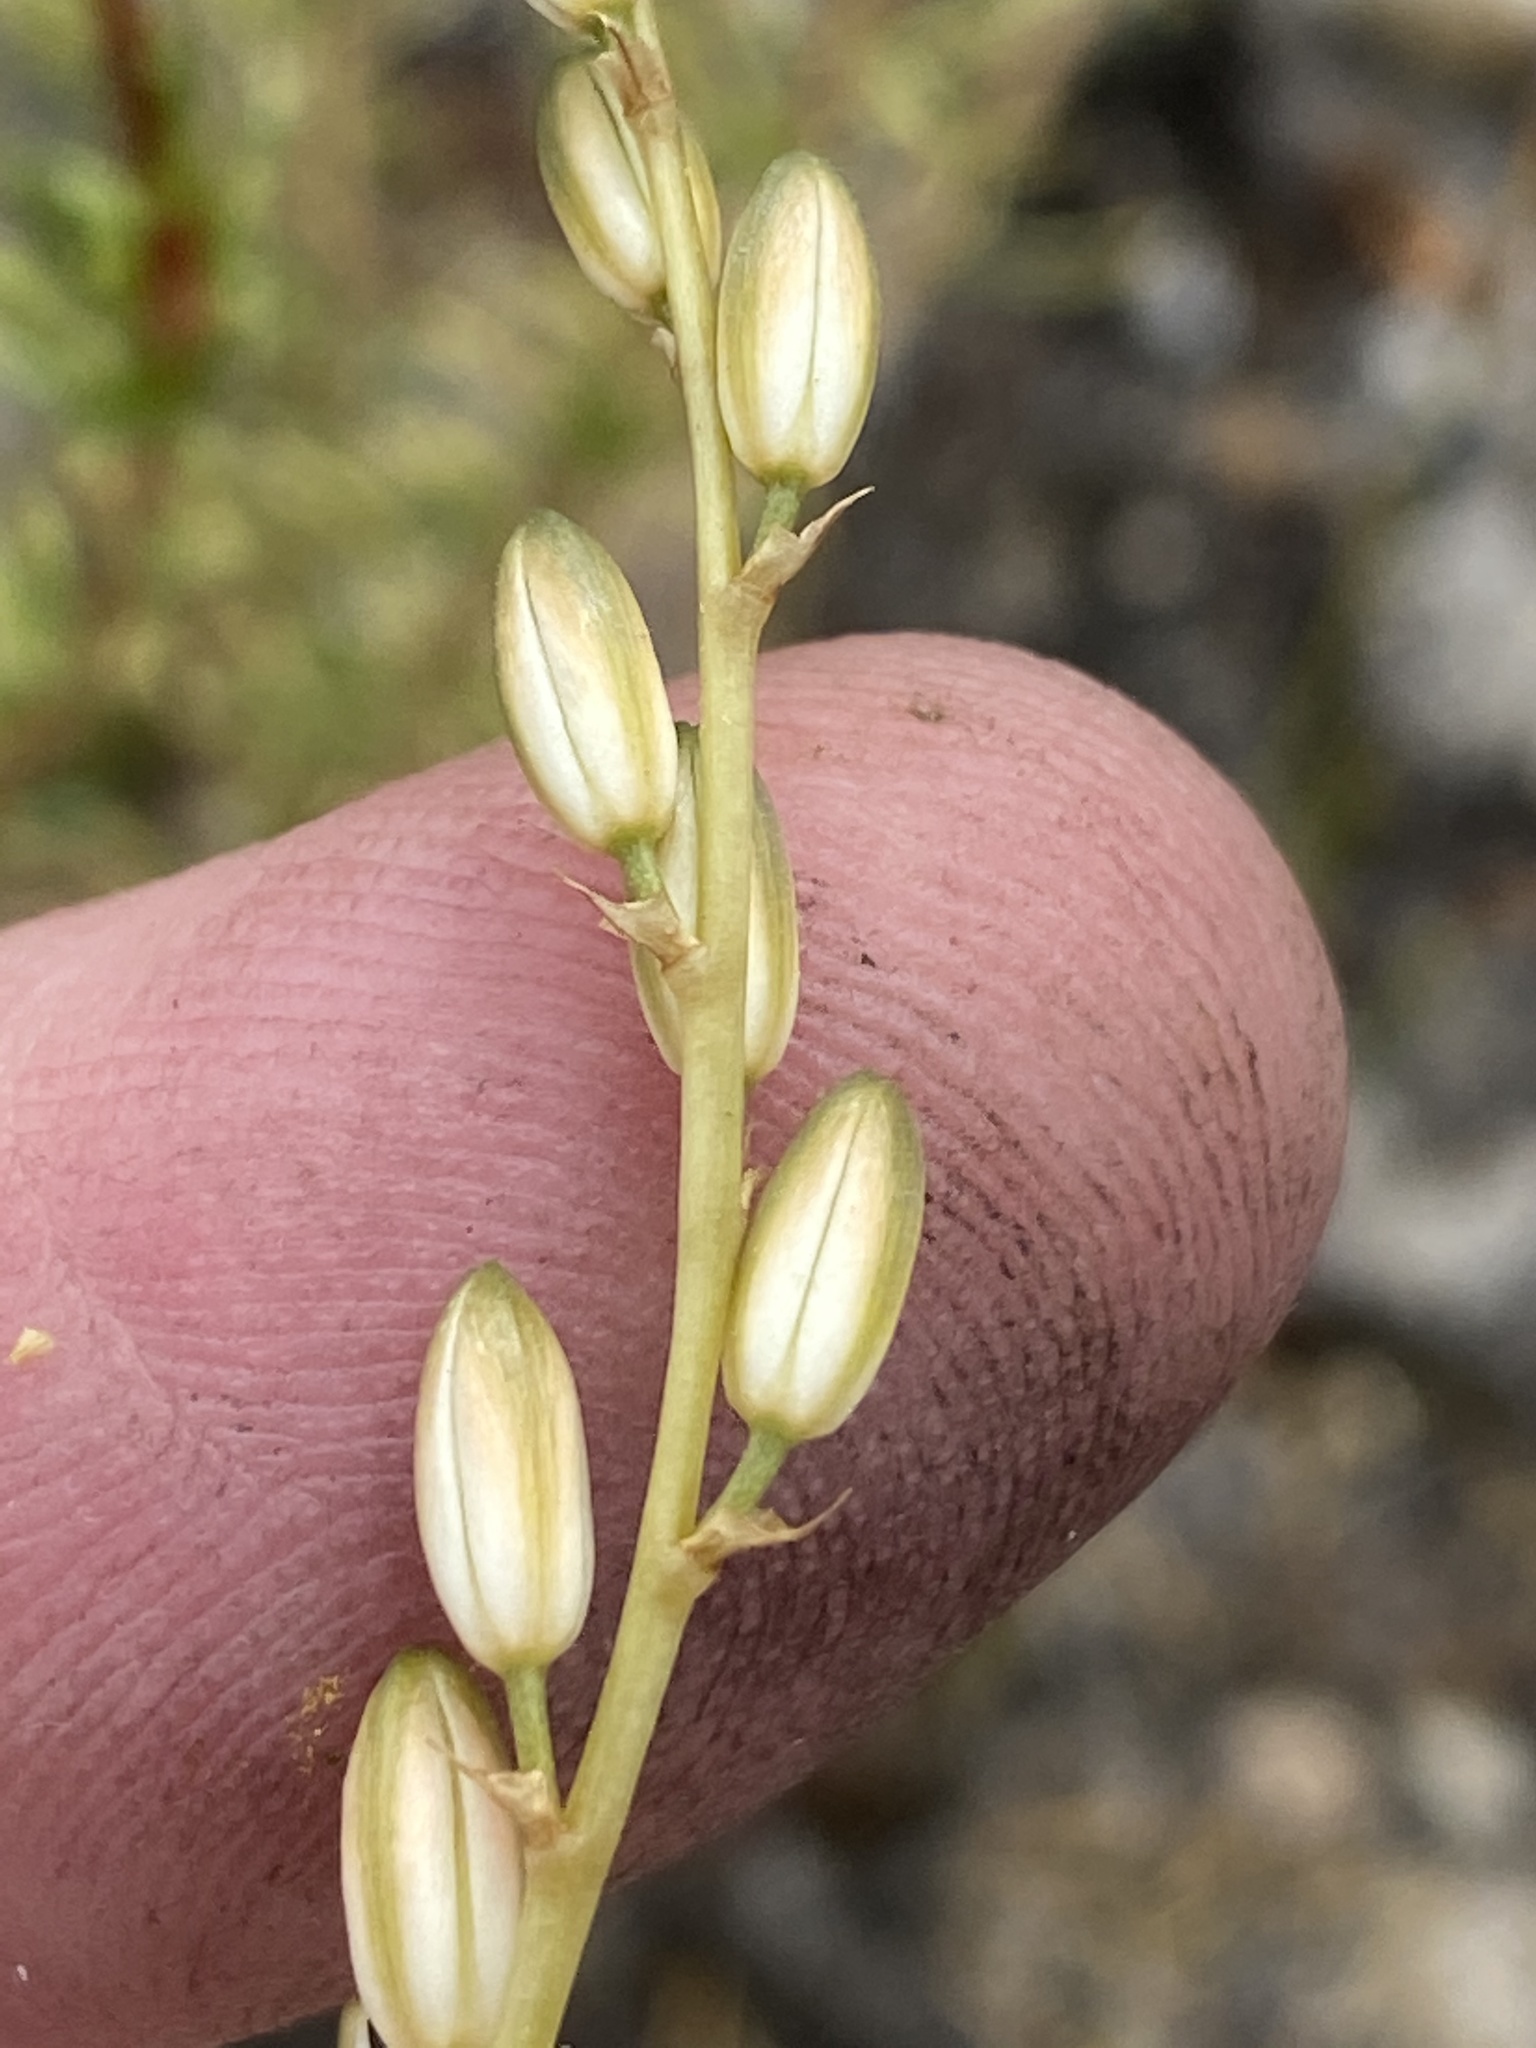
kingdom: Plantae
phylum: Tracheophyta
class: Liliopsida
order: Asparagales
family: Asparagaceae
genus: Ornithogalum
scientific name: Ornithogalum graminifolium
